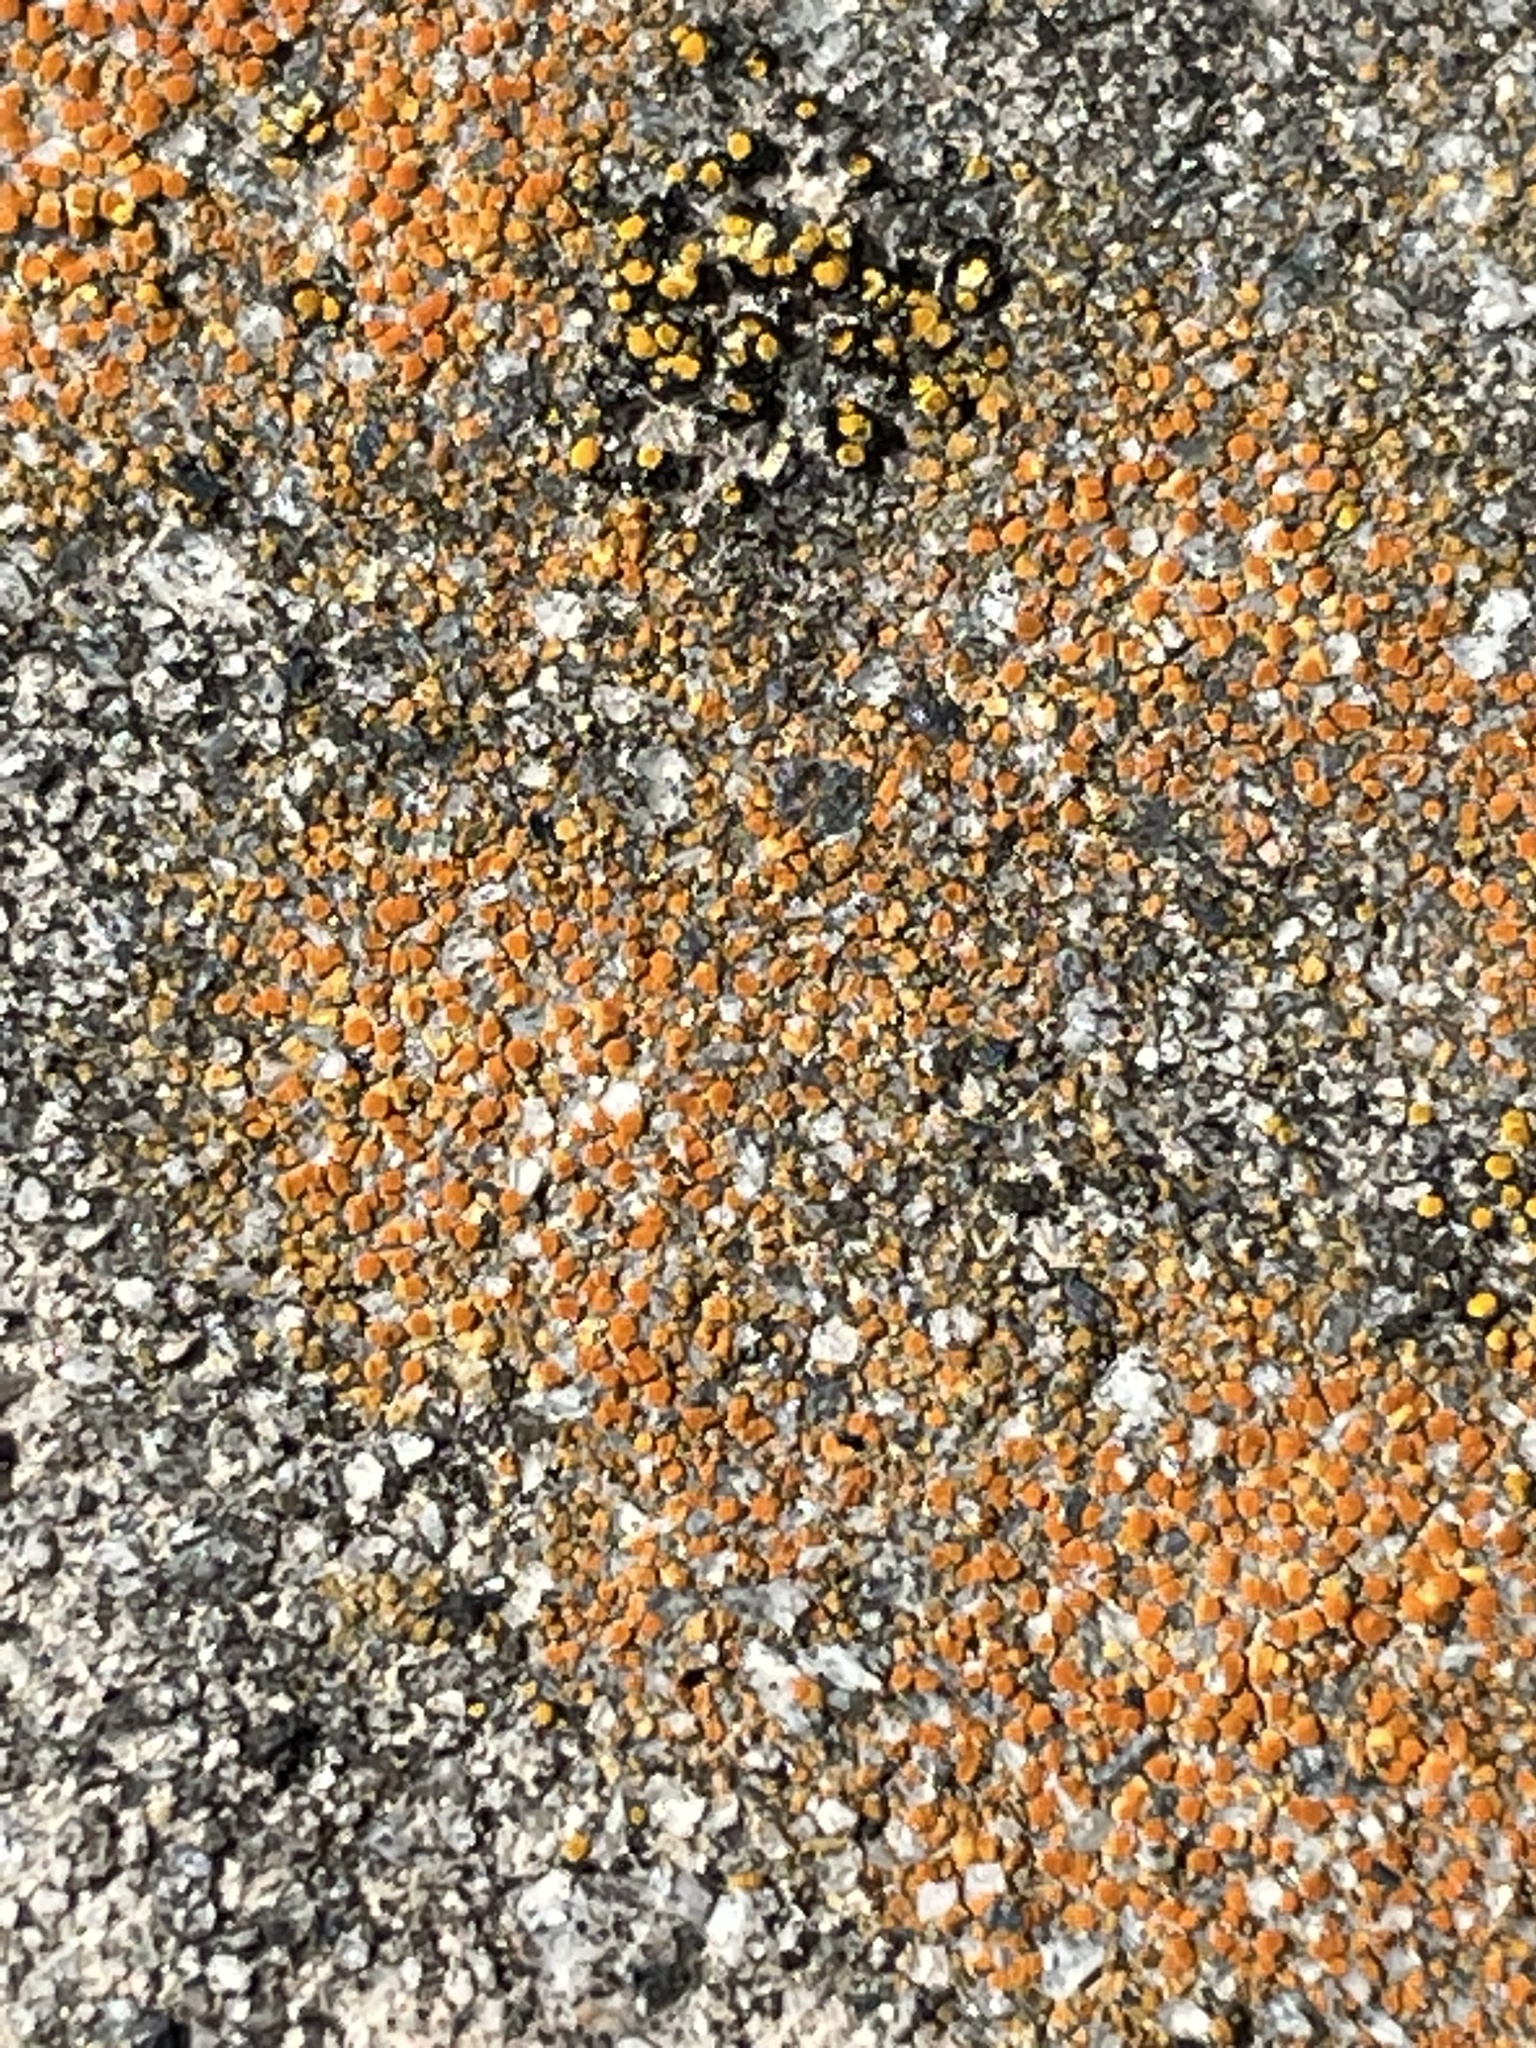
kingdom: Fungi
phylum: Ascomycota
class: Lecanoromycetes
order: Teloschistales
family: Teloschistaceae
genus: Xanthocarpia
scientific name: Xanthocarpia feracissima
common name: Sidewalk firedot
